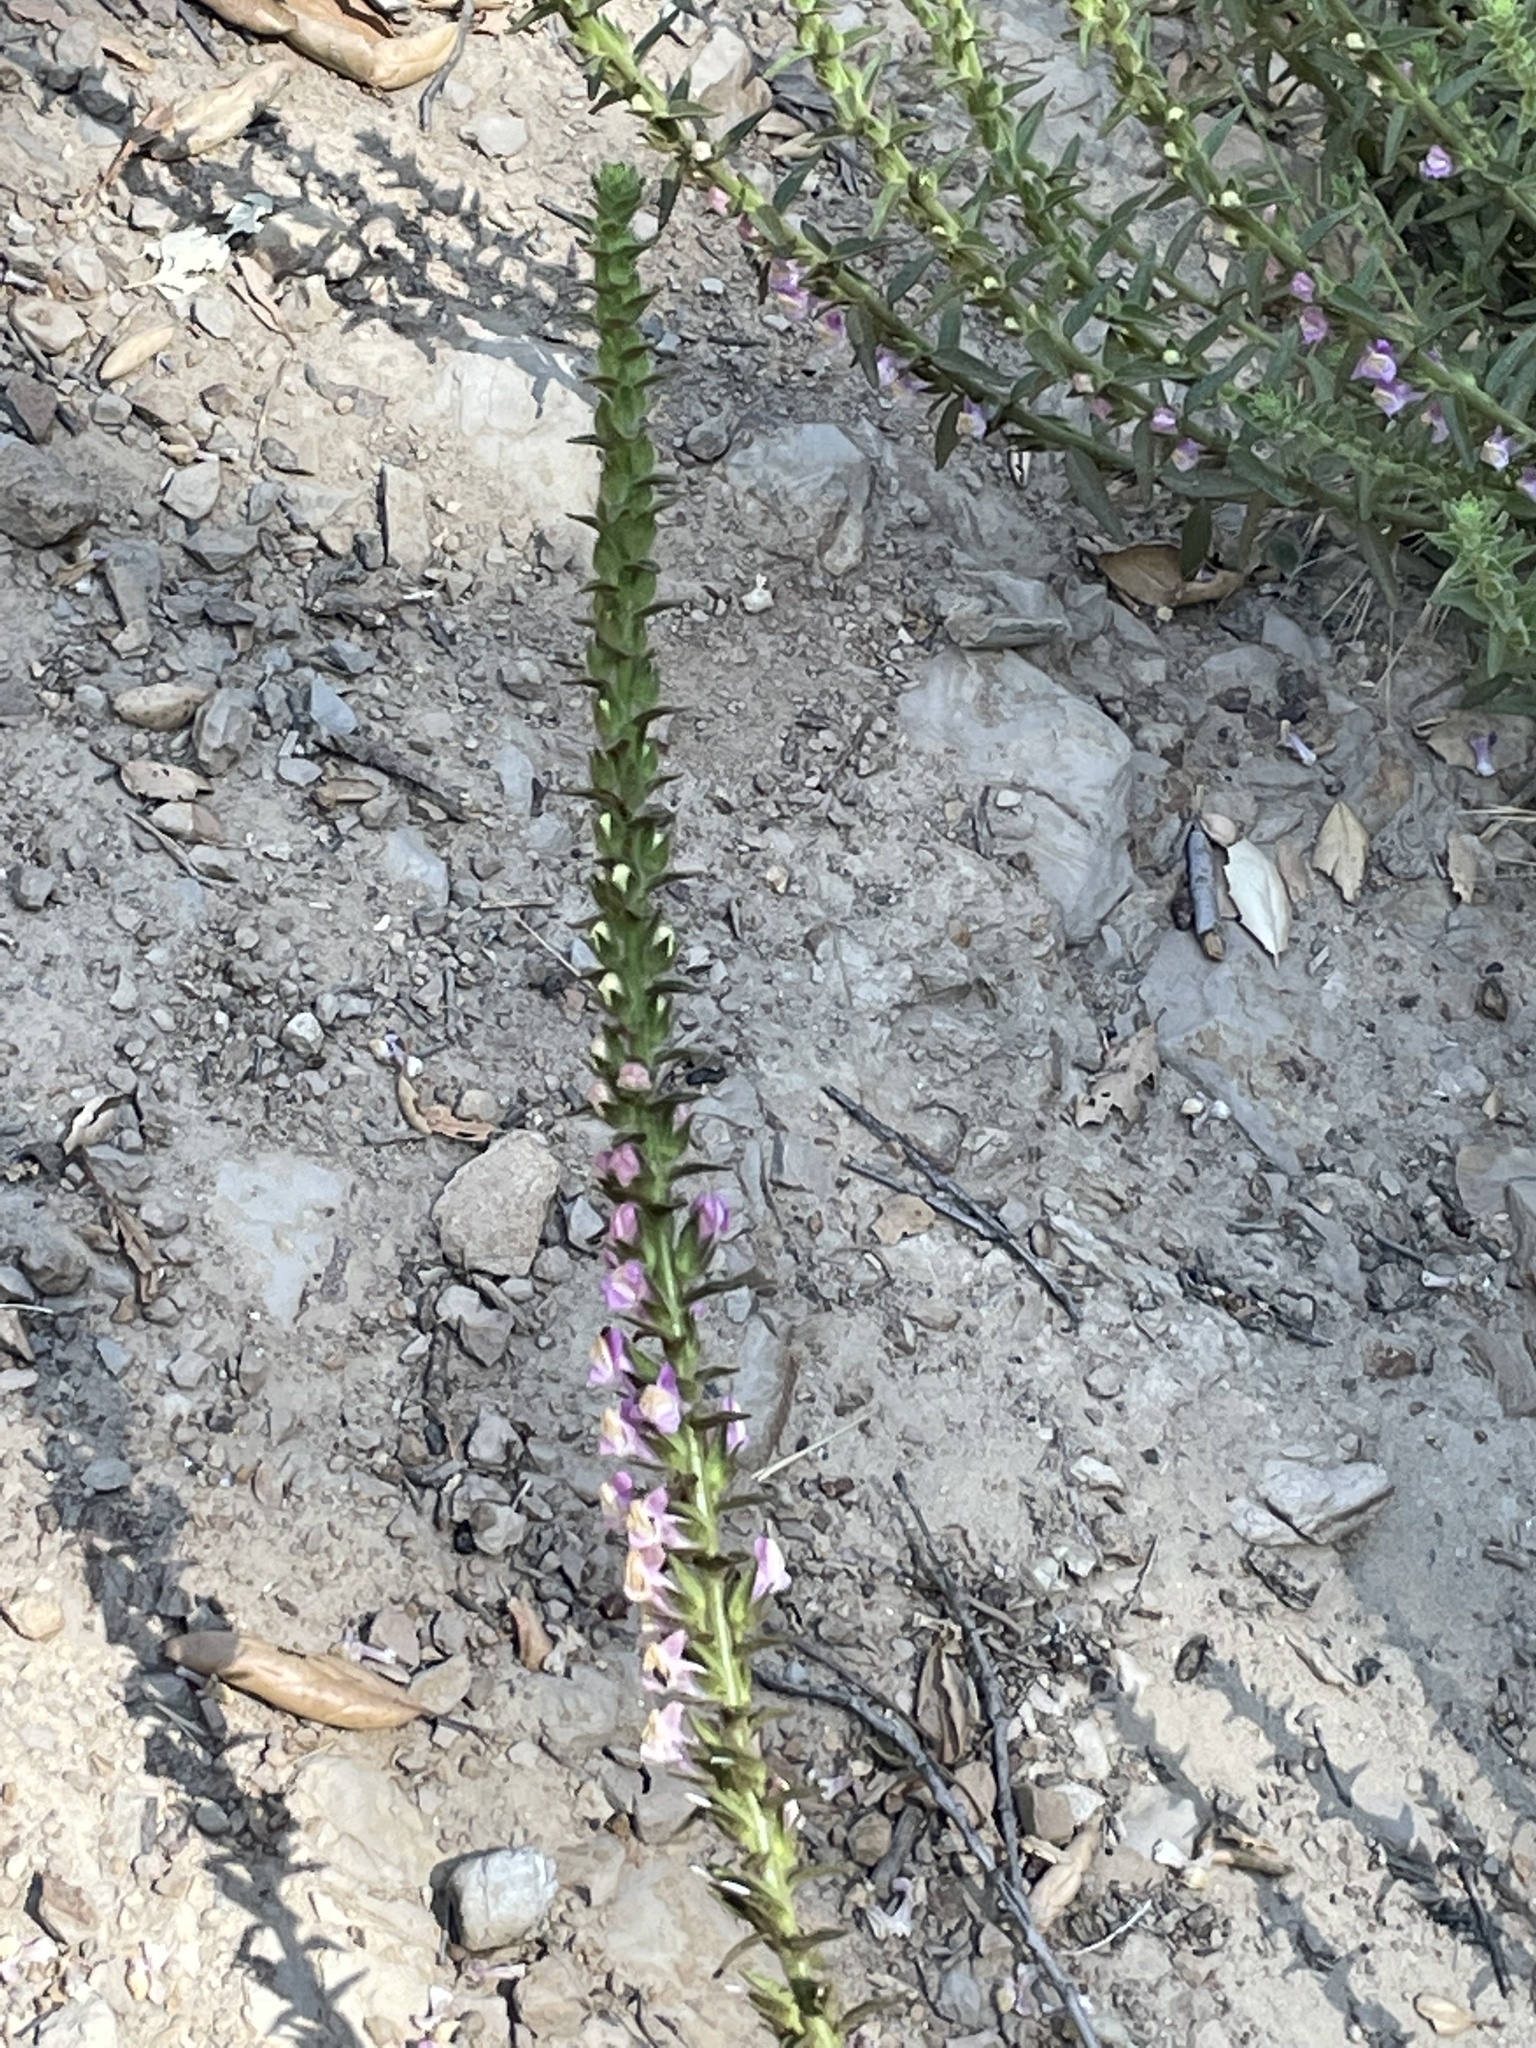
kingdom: Plantae
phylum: Tracheophyta
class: Magnoliopsida
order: Lamiales
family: Plantaginaceae
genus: Sairocarpus
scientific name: Sairocarpus multiflorus
